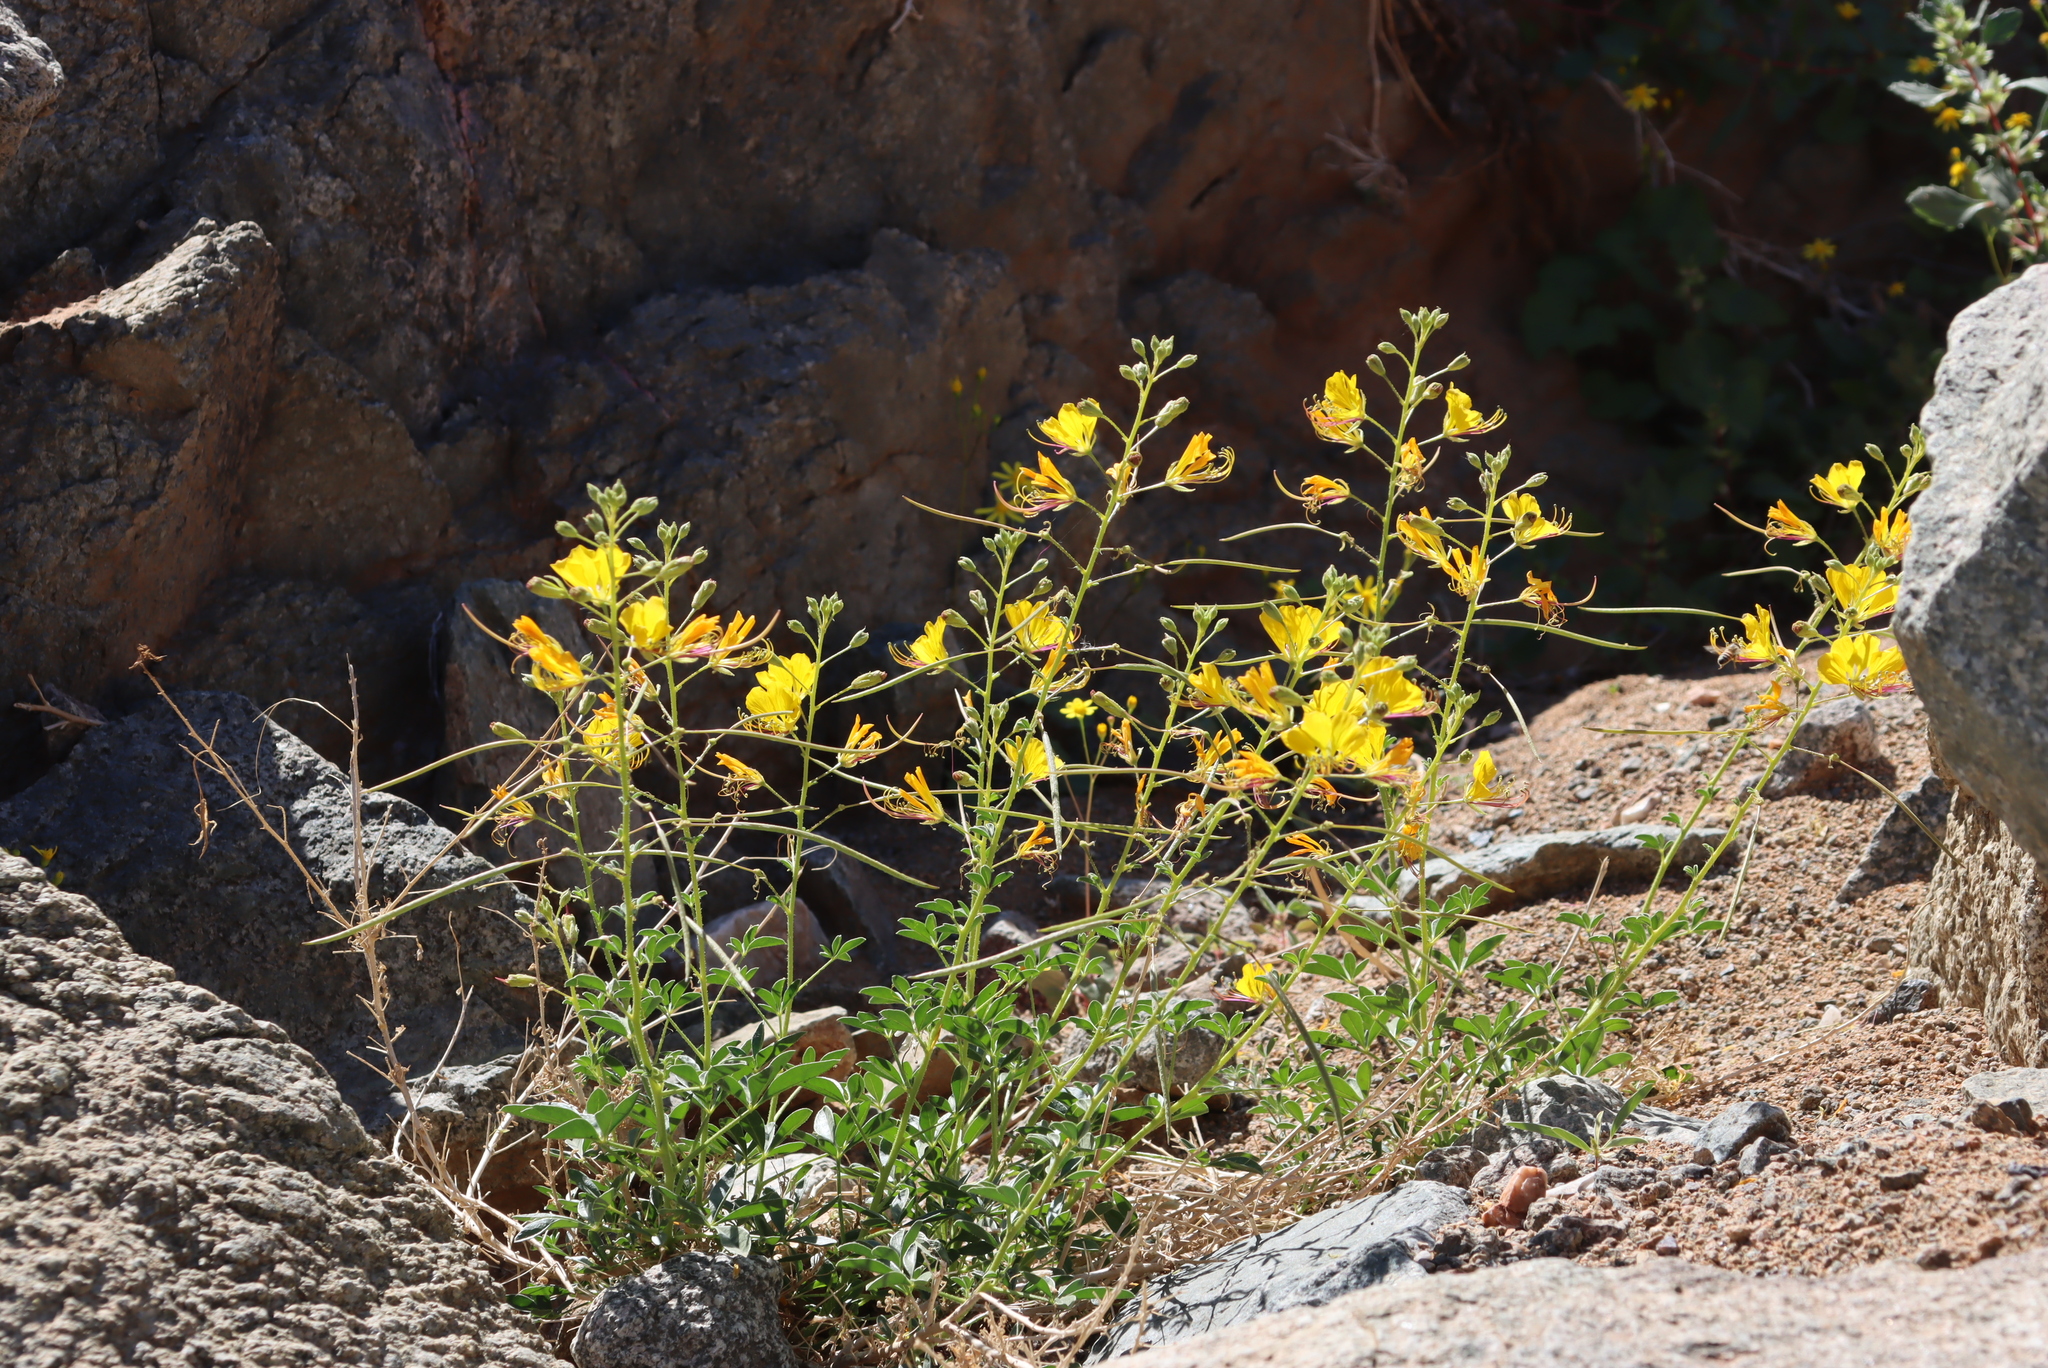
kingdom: Plantae
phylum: Tracheophyta
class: Magnoliopsida
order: Brassicales
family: Cleomaceae
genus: Cleome
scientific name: Cleome foliosa
